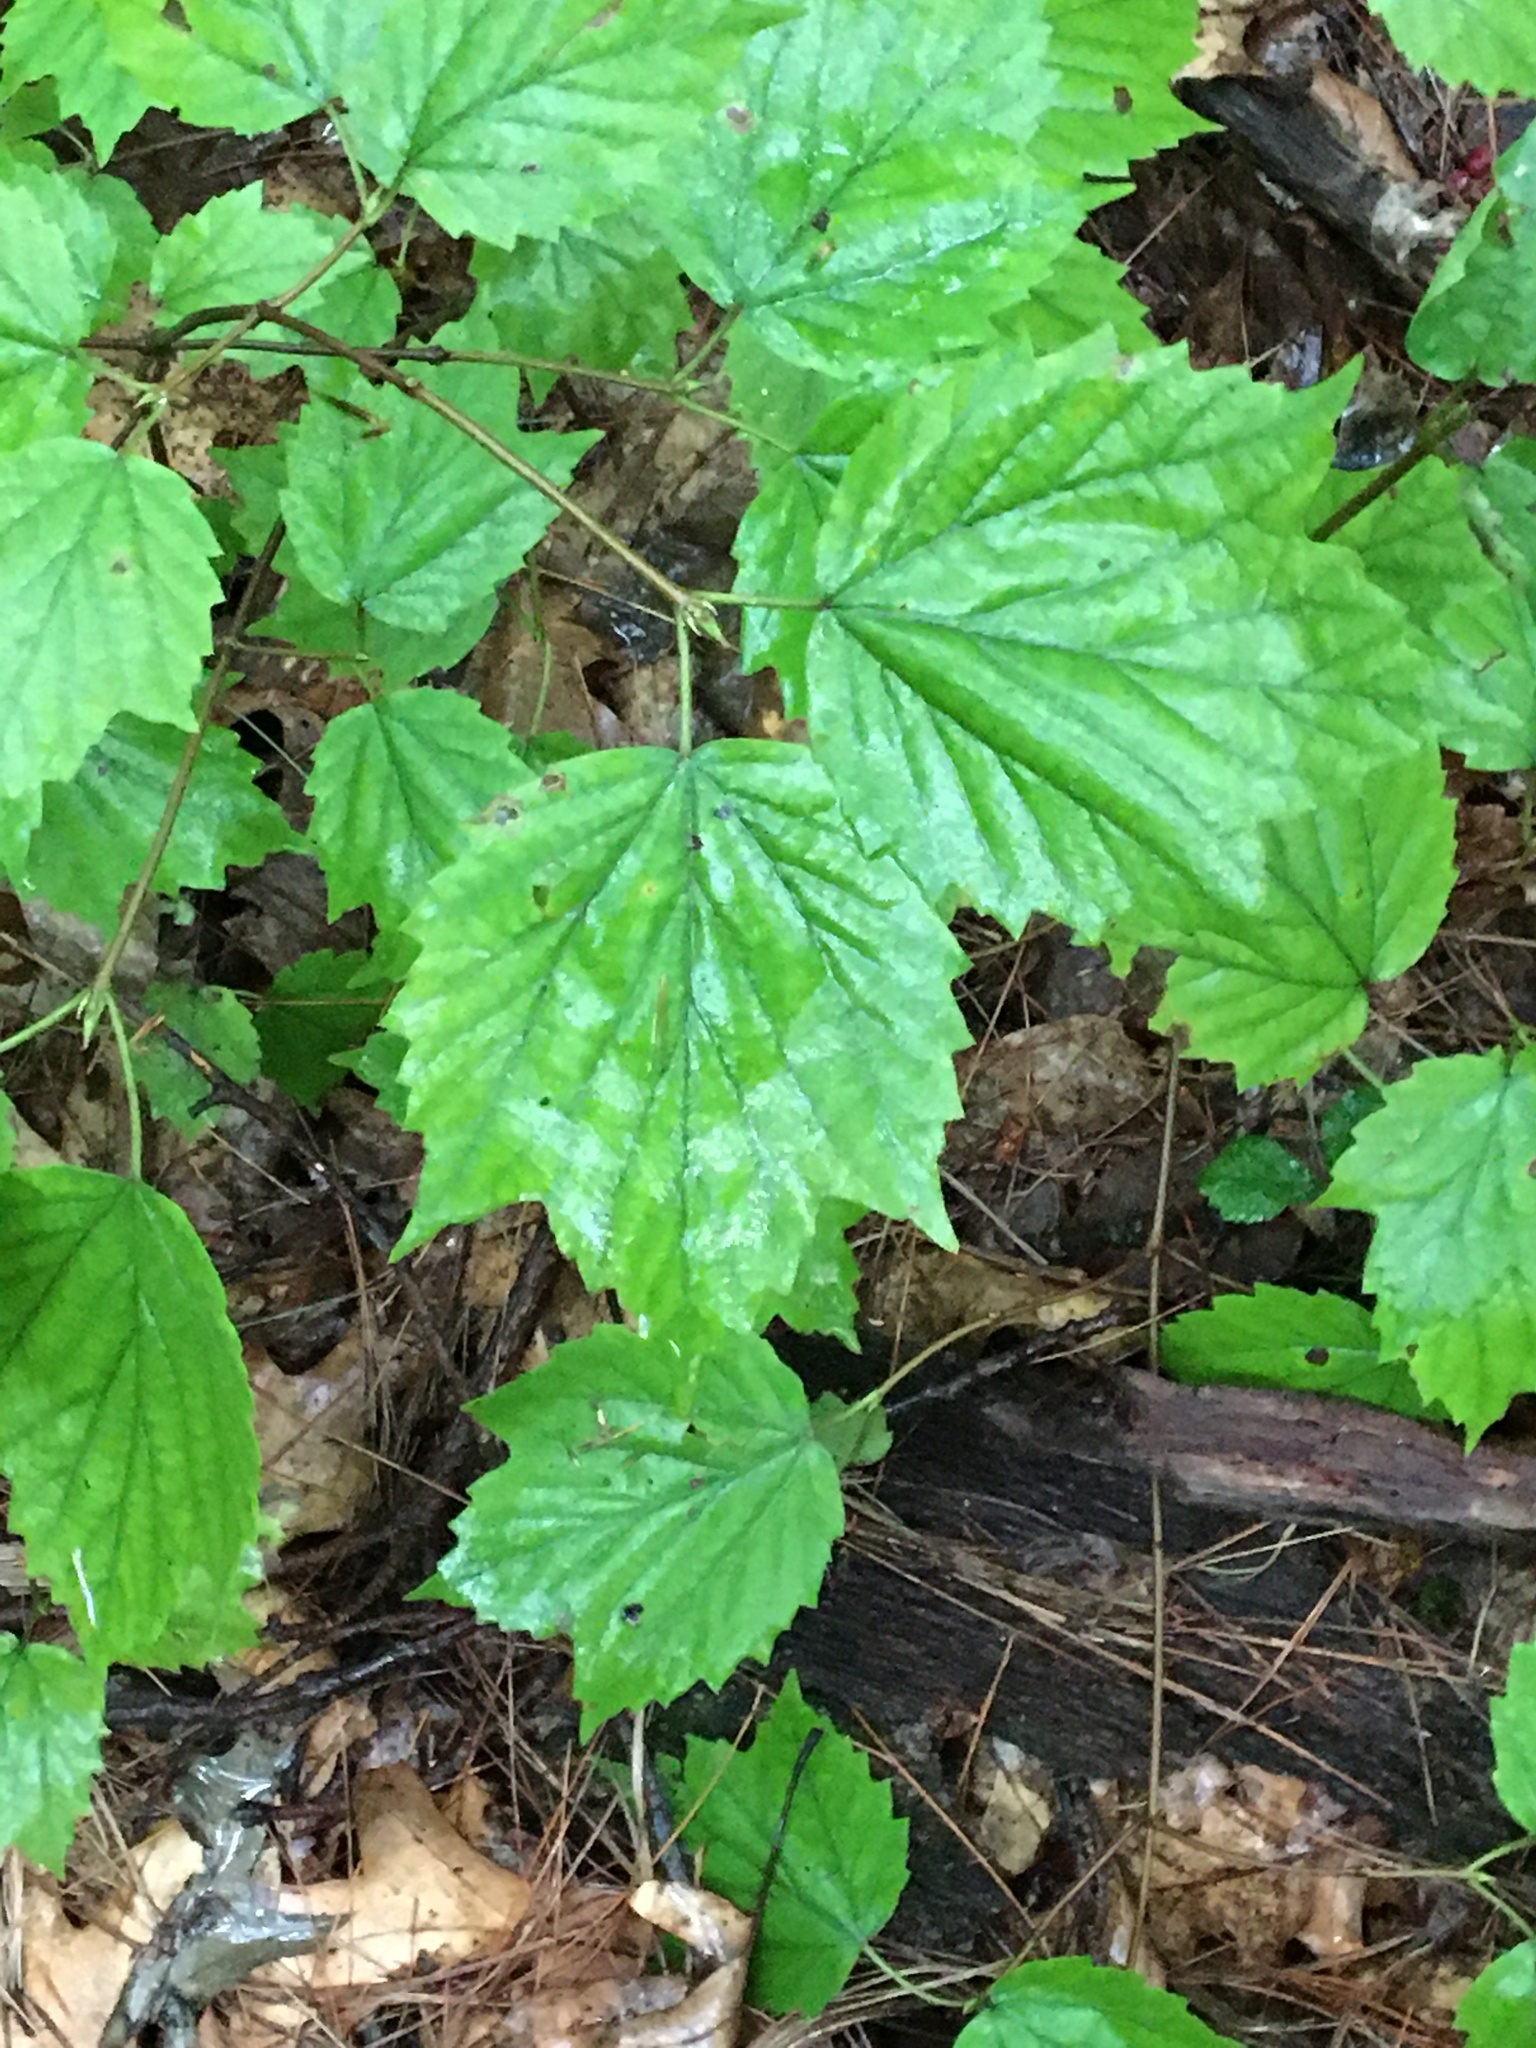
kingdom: Plantae
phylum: Tracheophyta
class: Magnoliopsida
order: Dipsacales
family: Viburnaceae
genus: Viburnum
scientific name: Viburnum acerifolium
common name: Dockmackie
